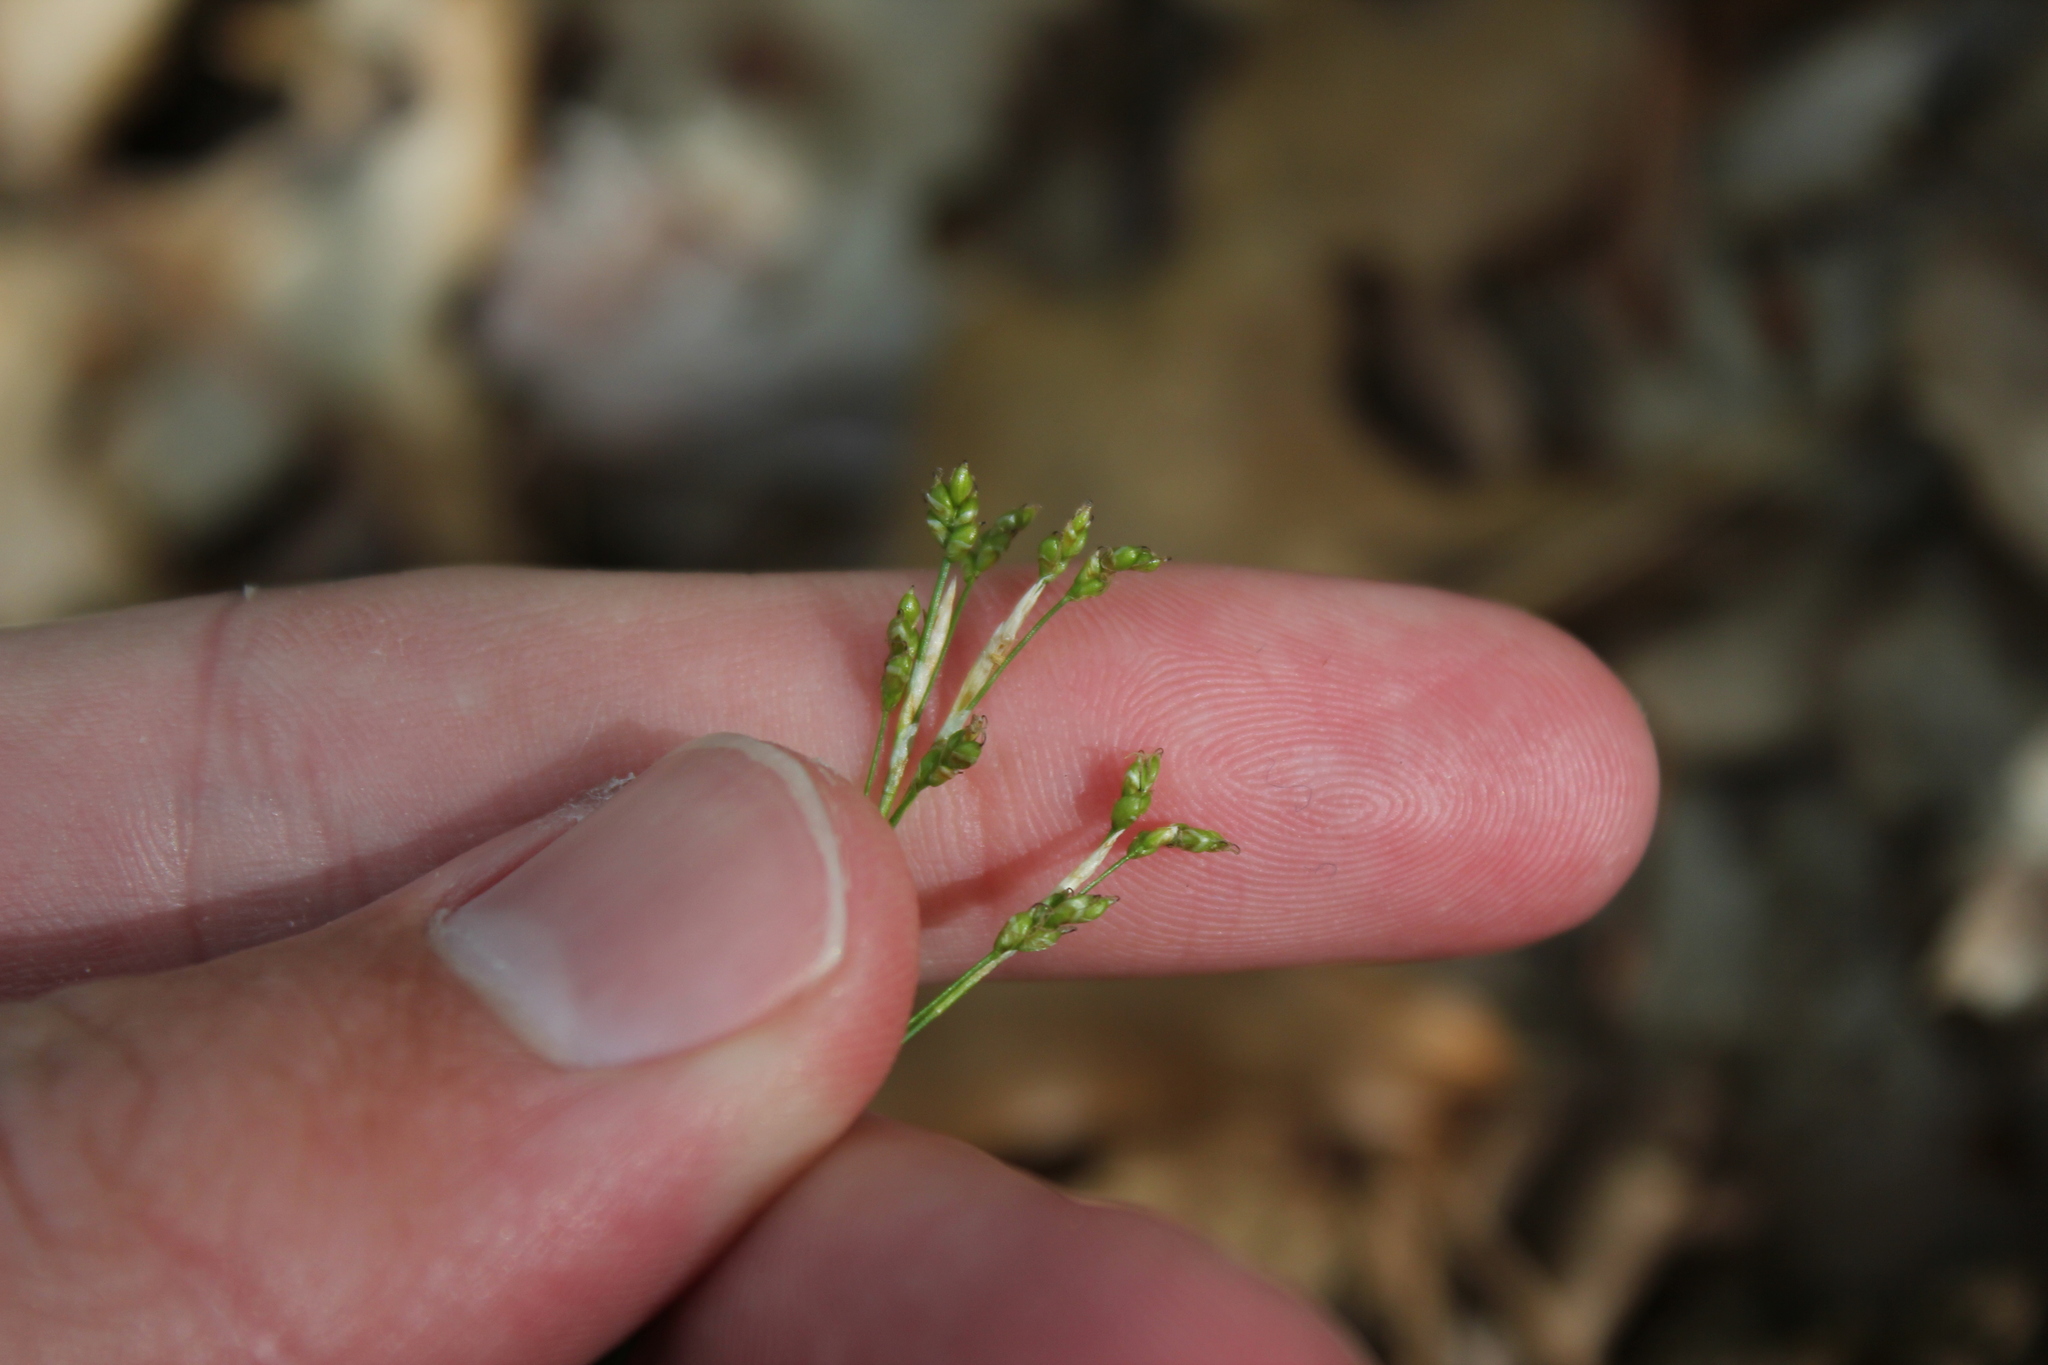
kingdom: Plantae
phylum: Tracheophyta
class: Liliopsida
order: Poales
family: Cyperaceae
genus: Carex
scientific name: Carex eburnea
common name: Bristle-leaved sedge
